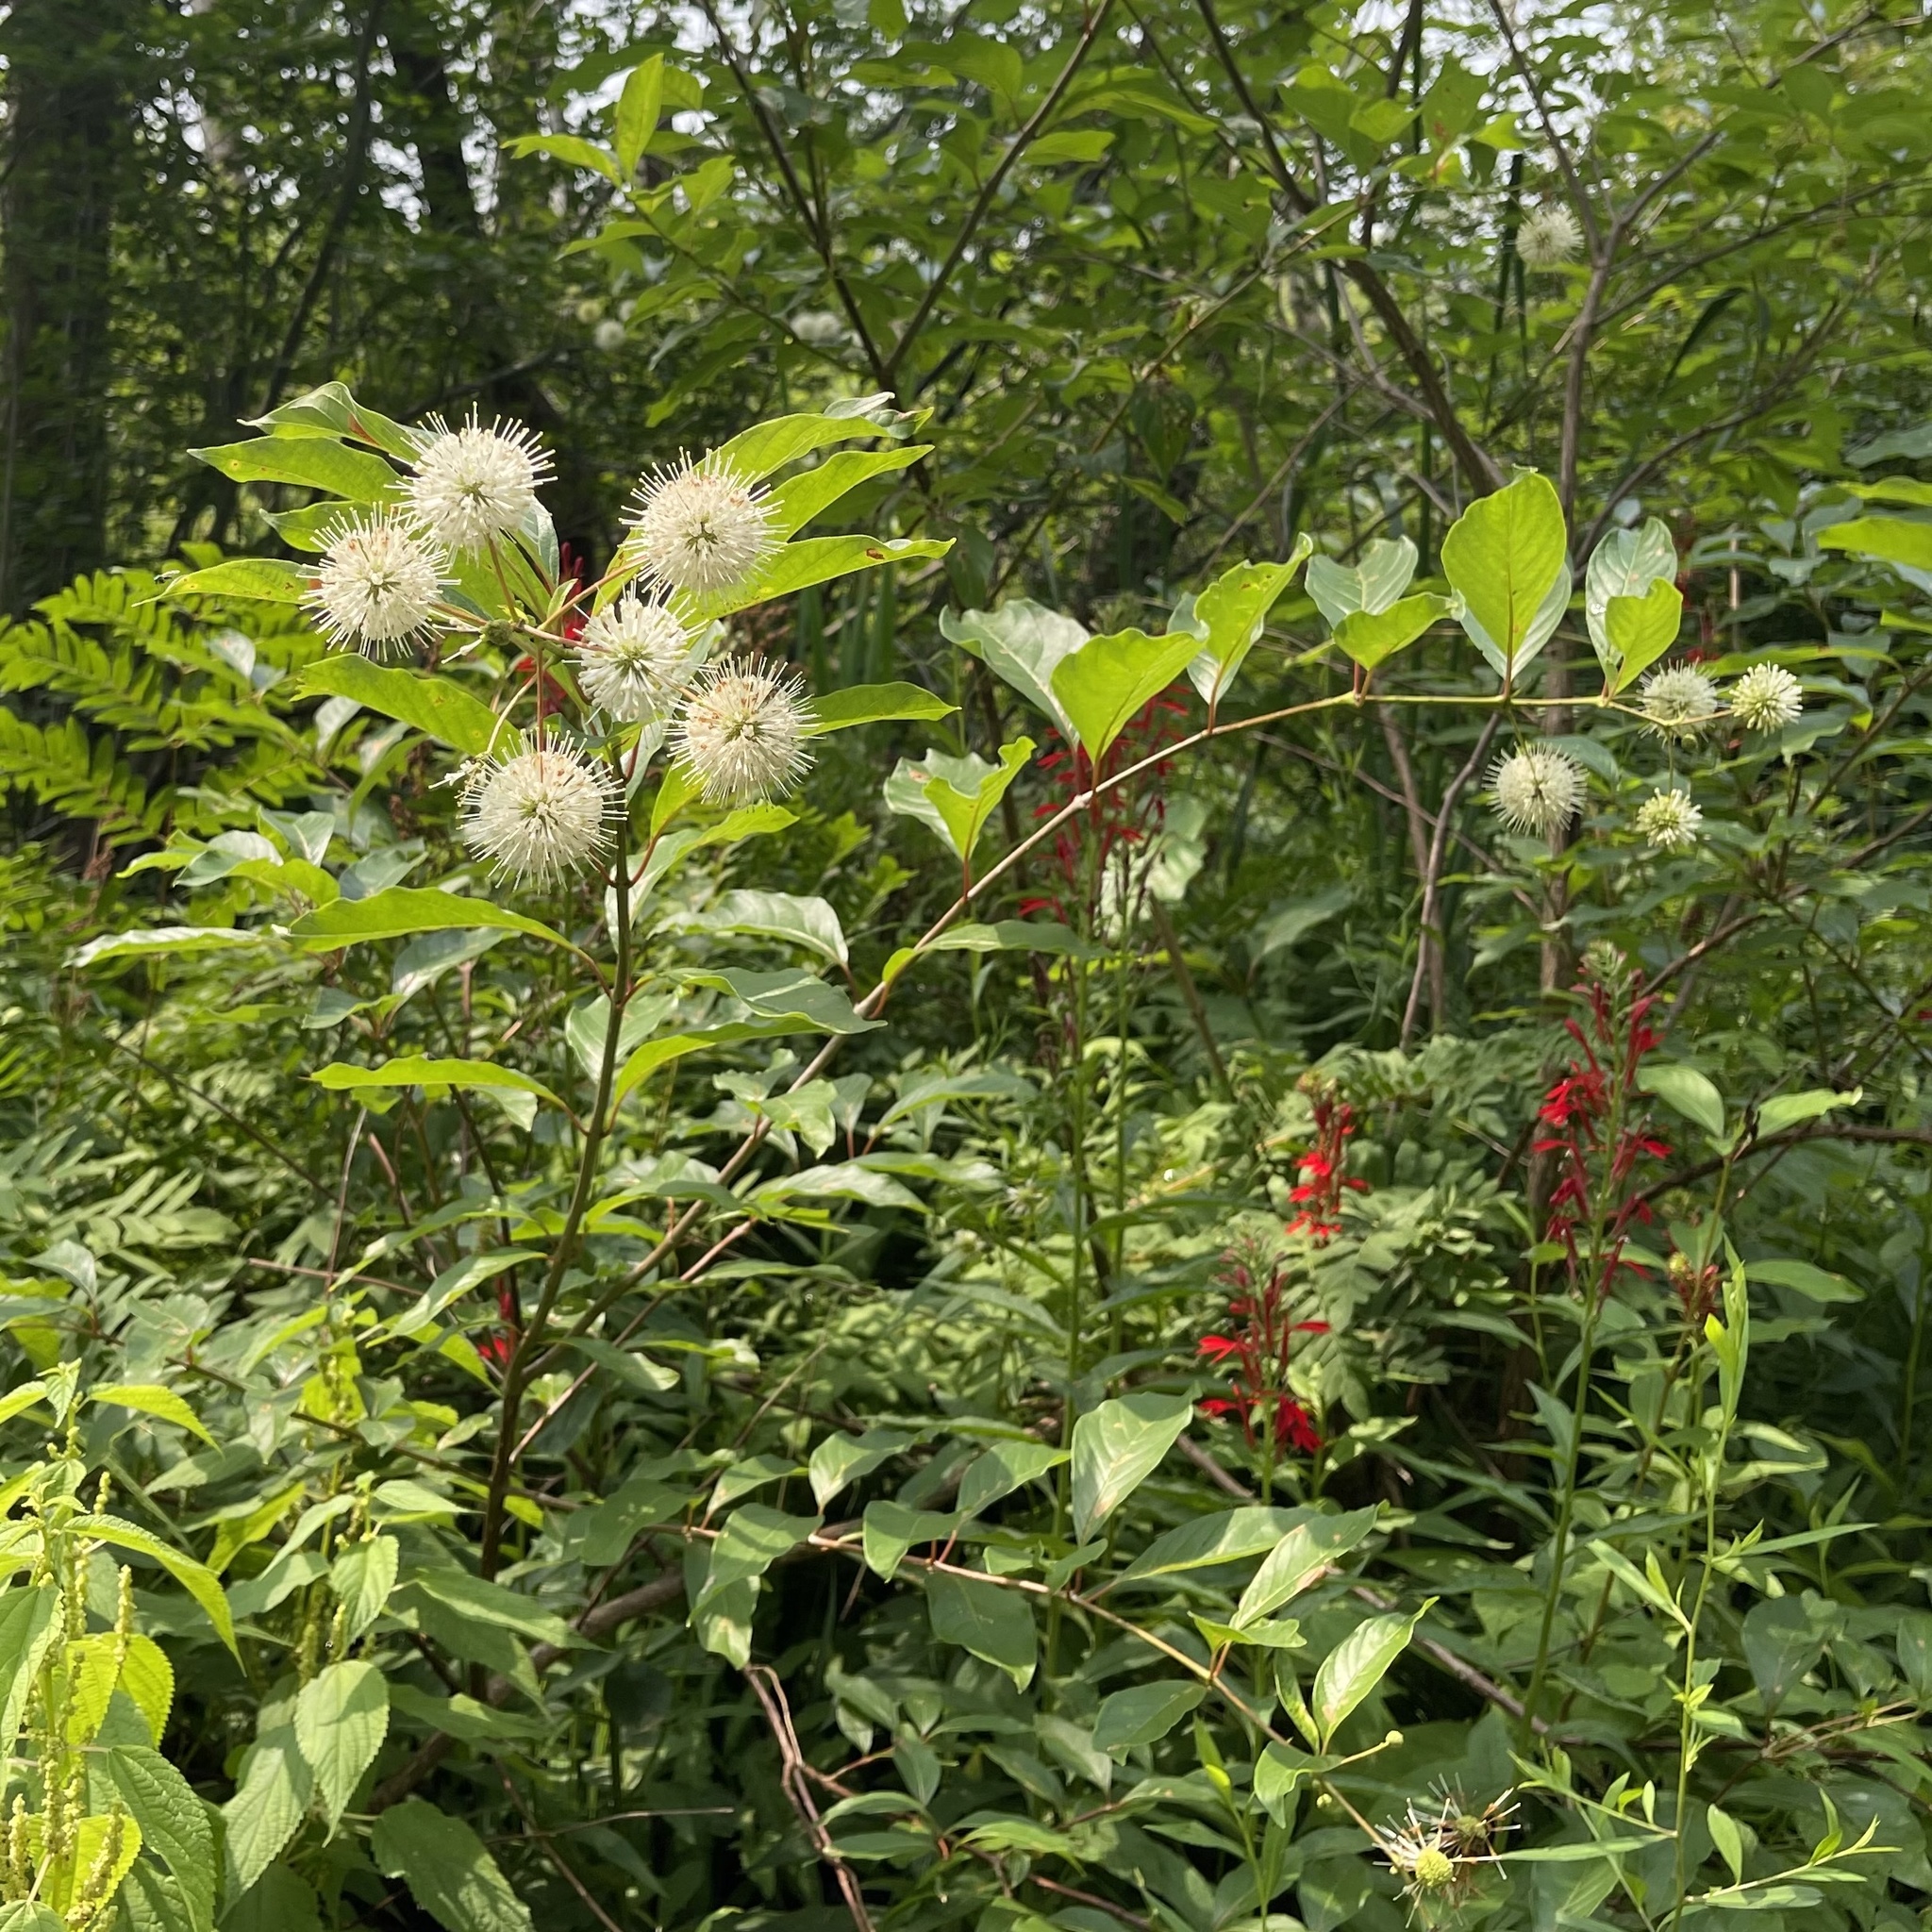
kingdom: Plantae
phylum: Tracheophyta
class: Magnoliopsida
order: Gentianales
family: Rubiaceae
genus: Cephalanthus
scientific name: Cephalanthus occidentalis
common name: Button-willow
